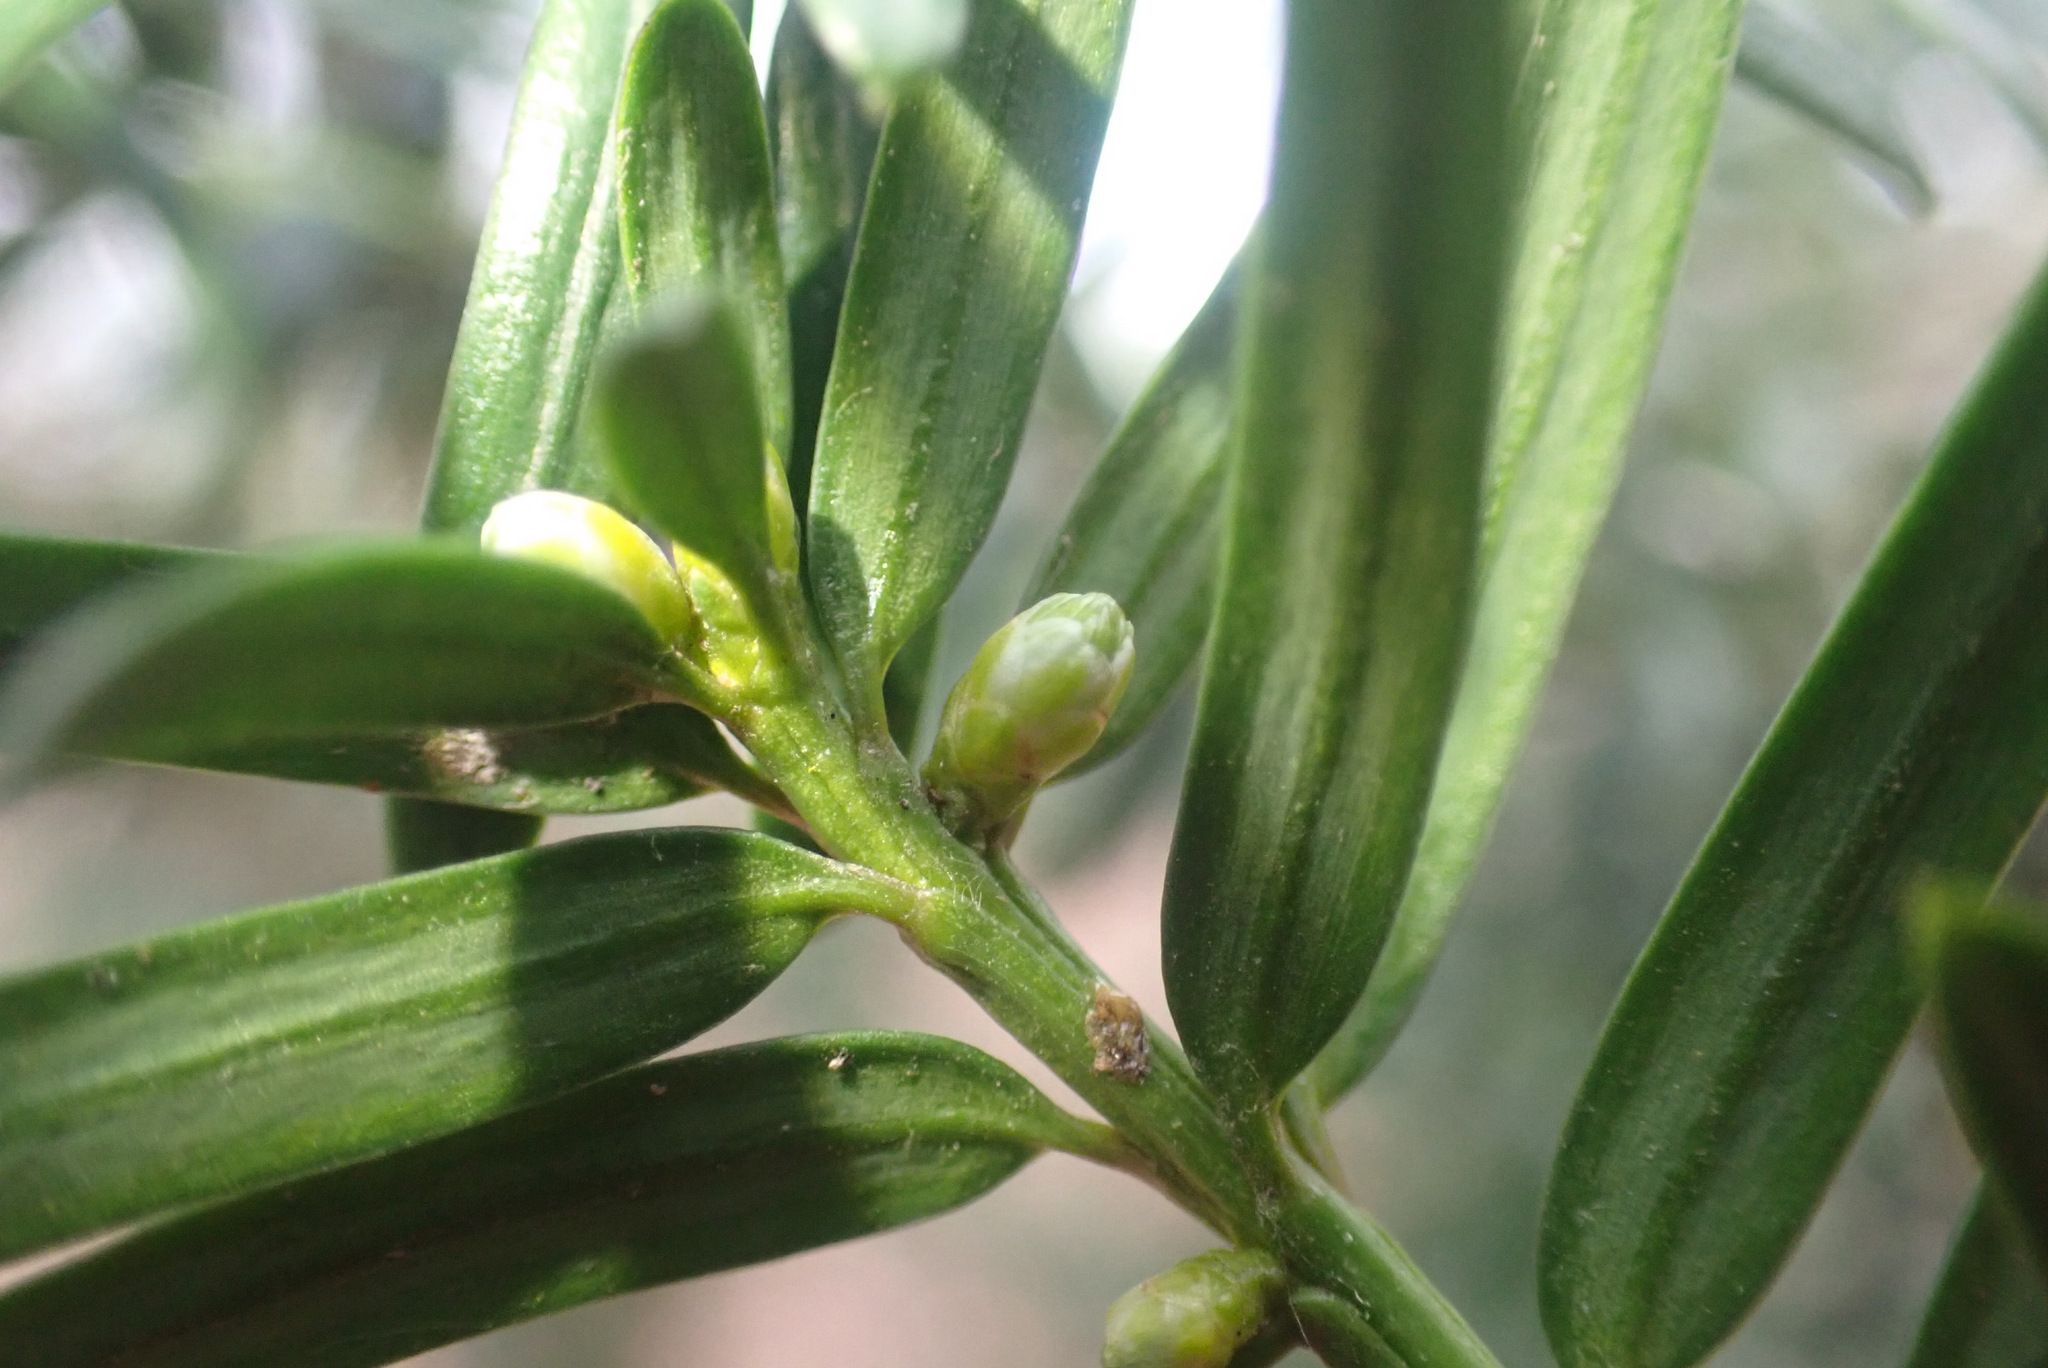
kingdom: Plantae
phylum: Tracheophyta
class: Pinopsida
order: Pinales
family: Taxaceae
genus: Taxus
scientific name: Taxus baccata
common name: Yew
